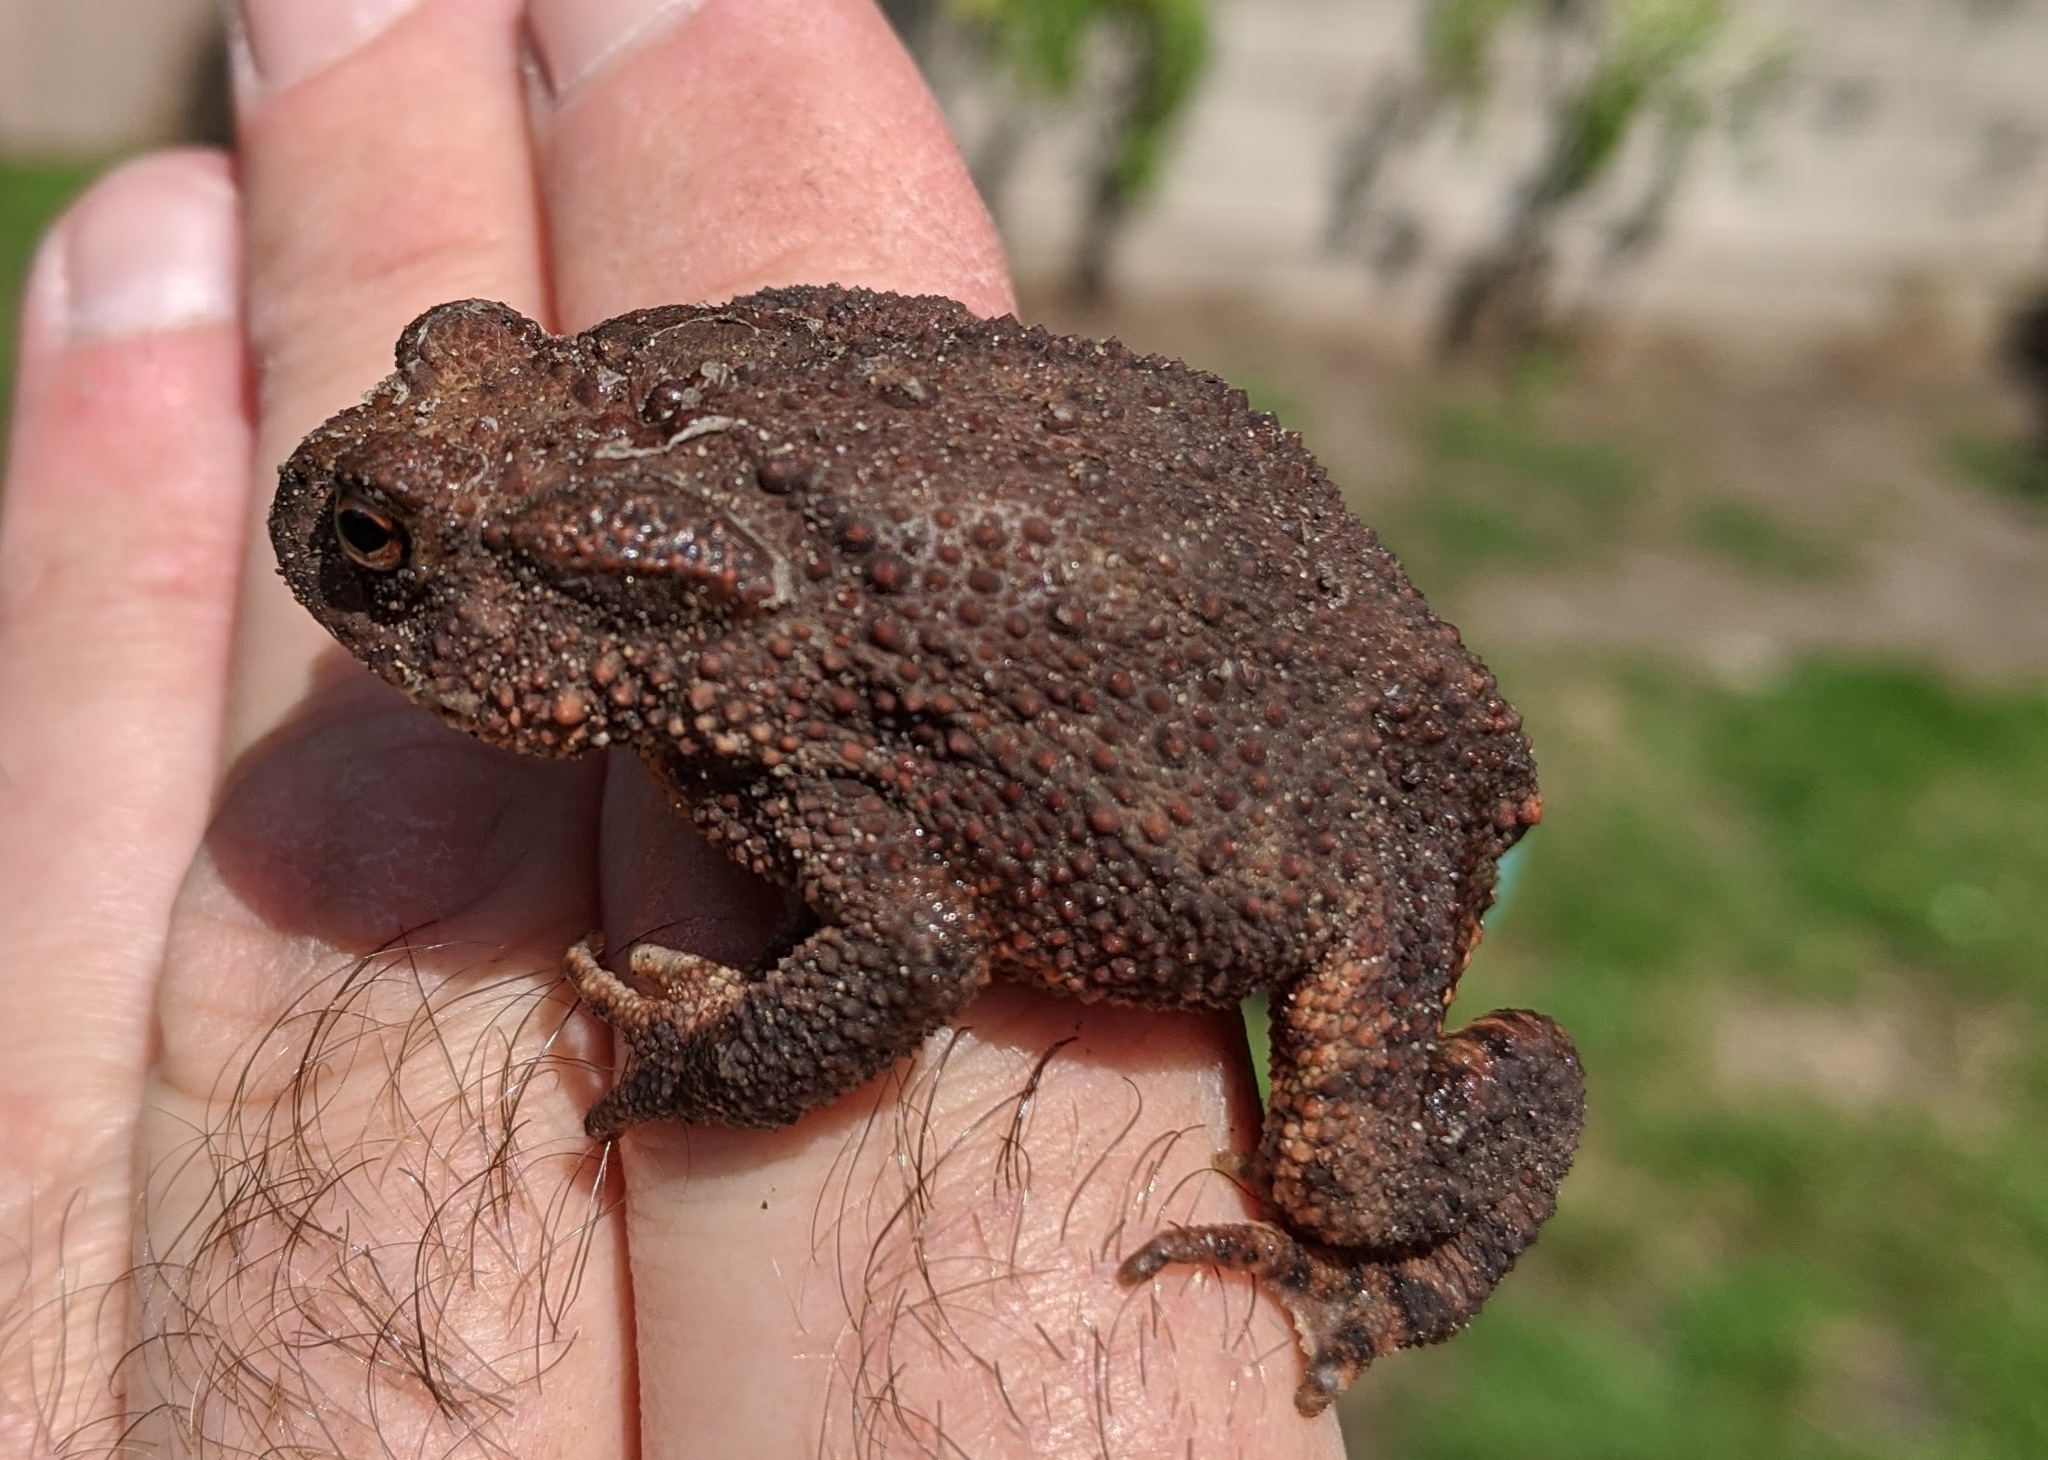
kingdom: Animalia
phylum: Chordata
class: Amphibia
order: Anura
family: Bufonidae
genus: Bufo
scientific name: Bufo bufo
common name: Common toad
